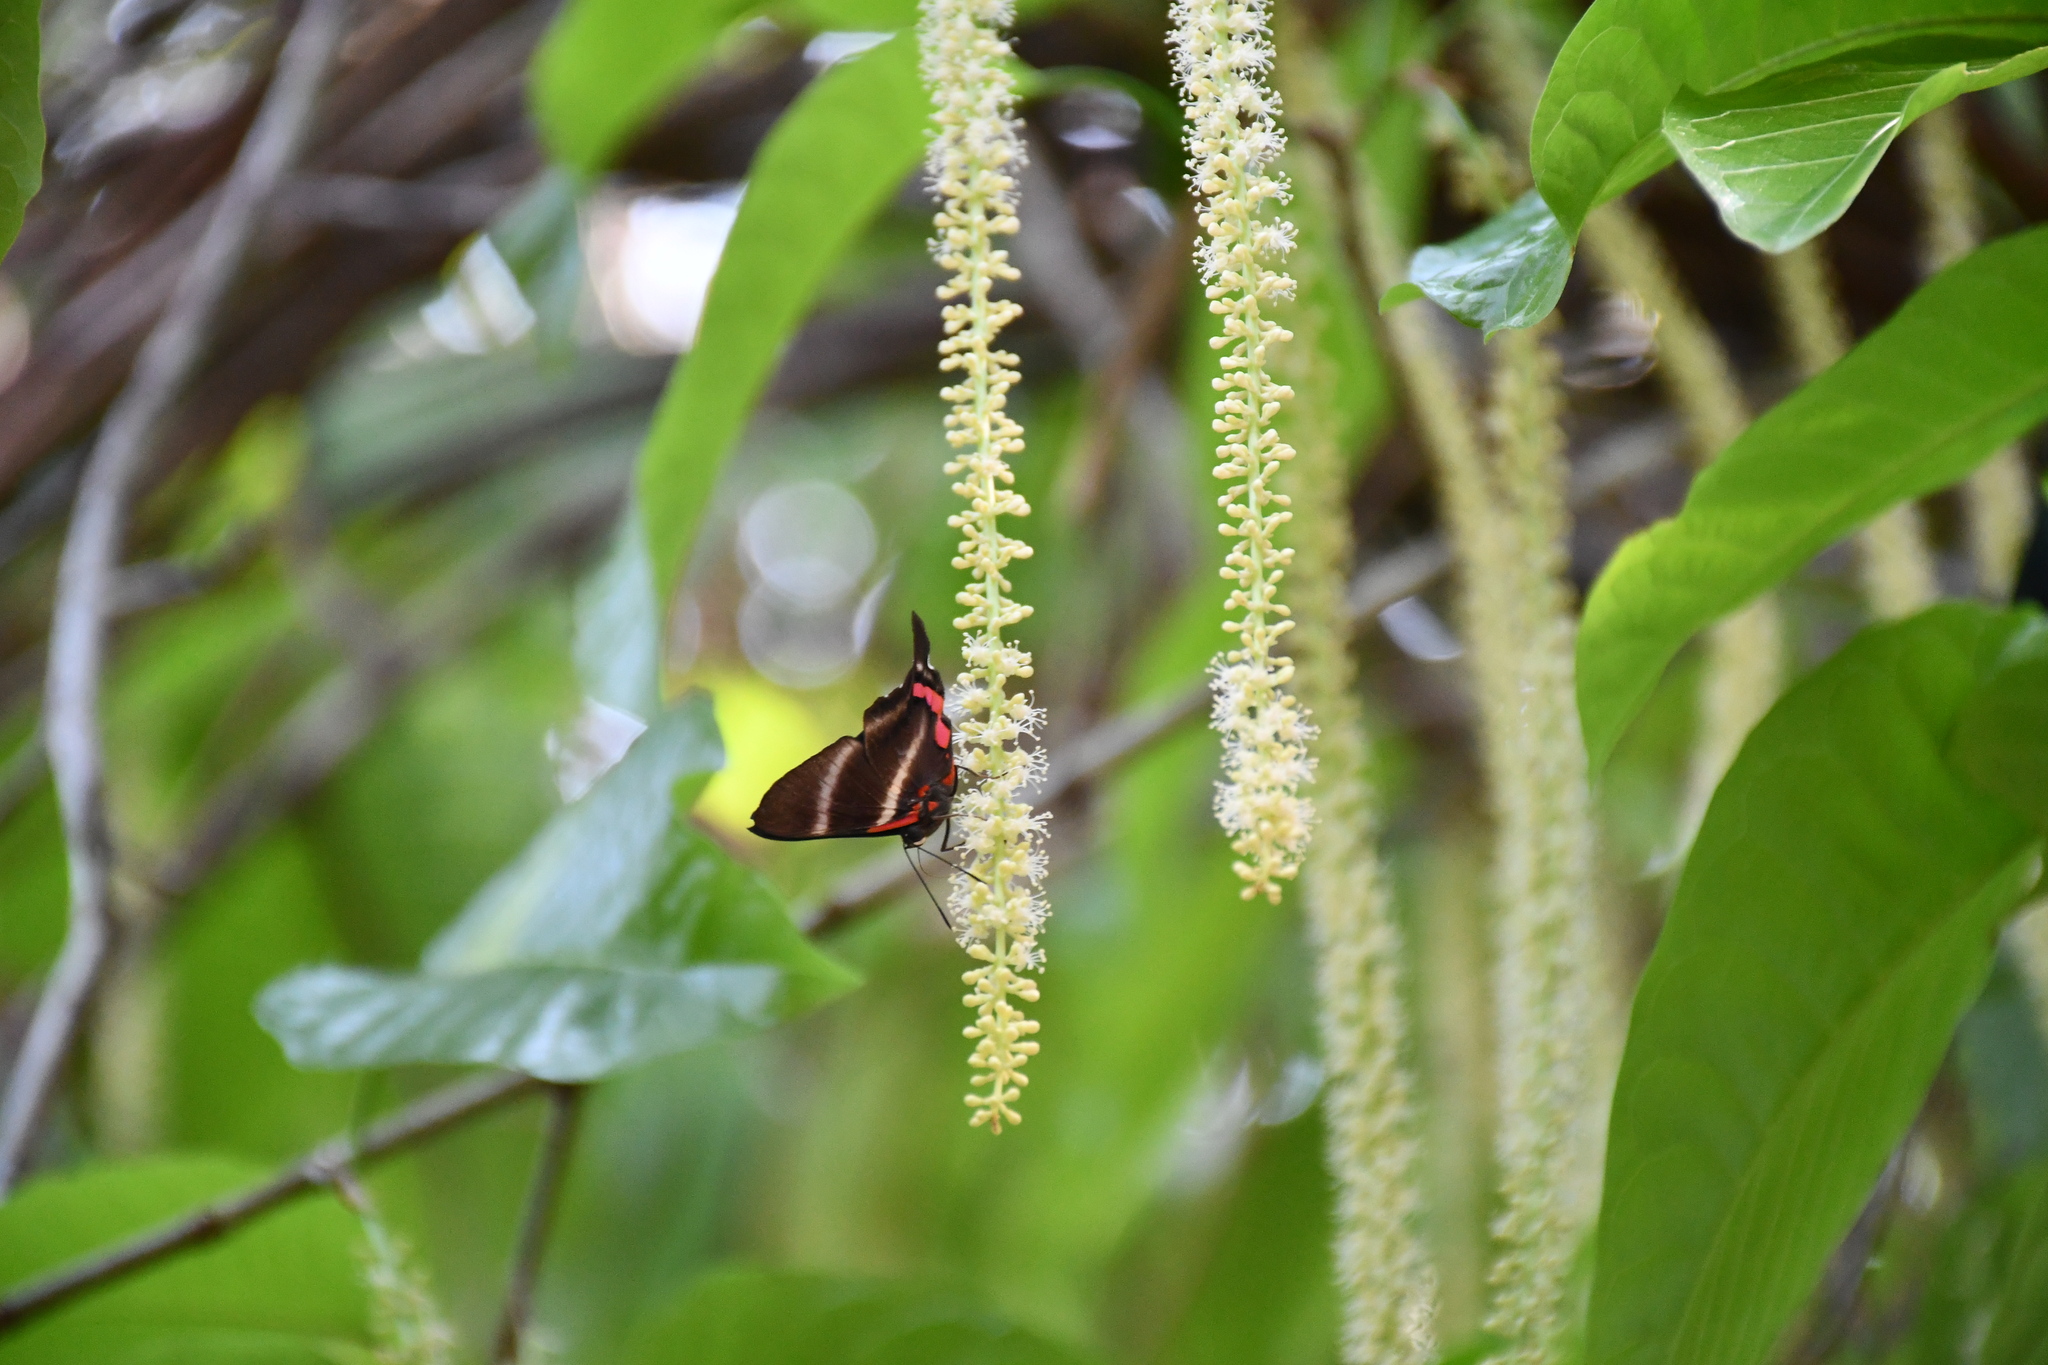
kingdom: Animalia
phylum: Arthropoda
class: Insecta
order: Lepidoptera
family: Riodinidae
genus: Rhetus
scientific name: Rhetus periander
